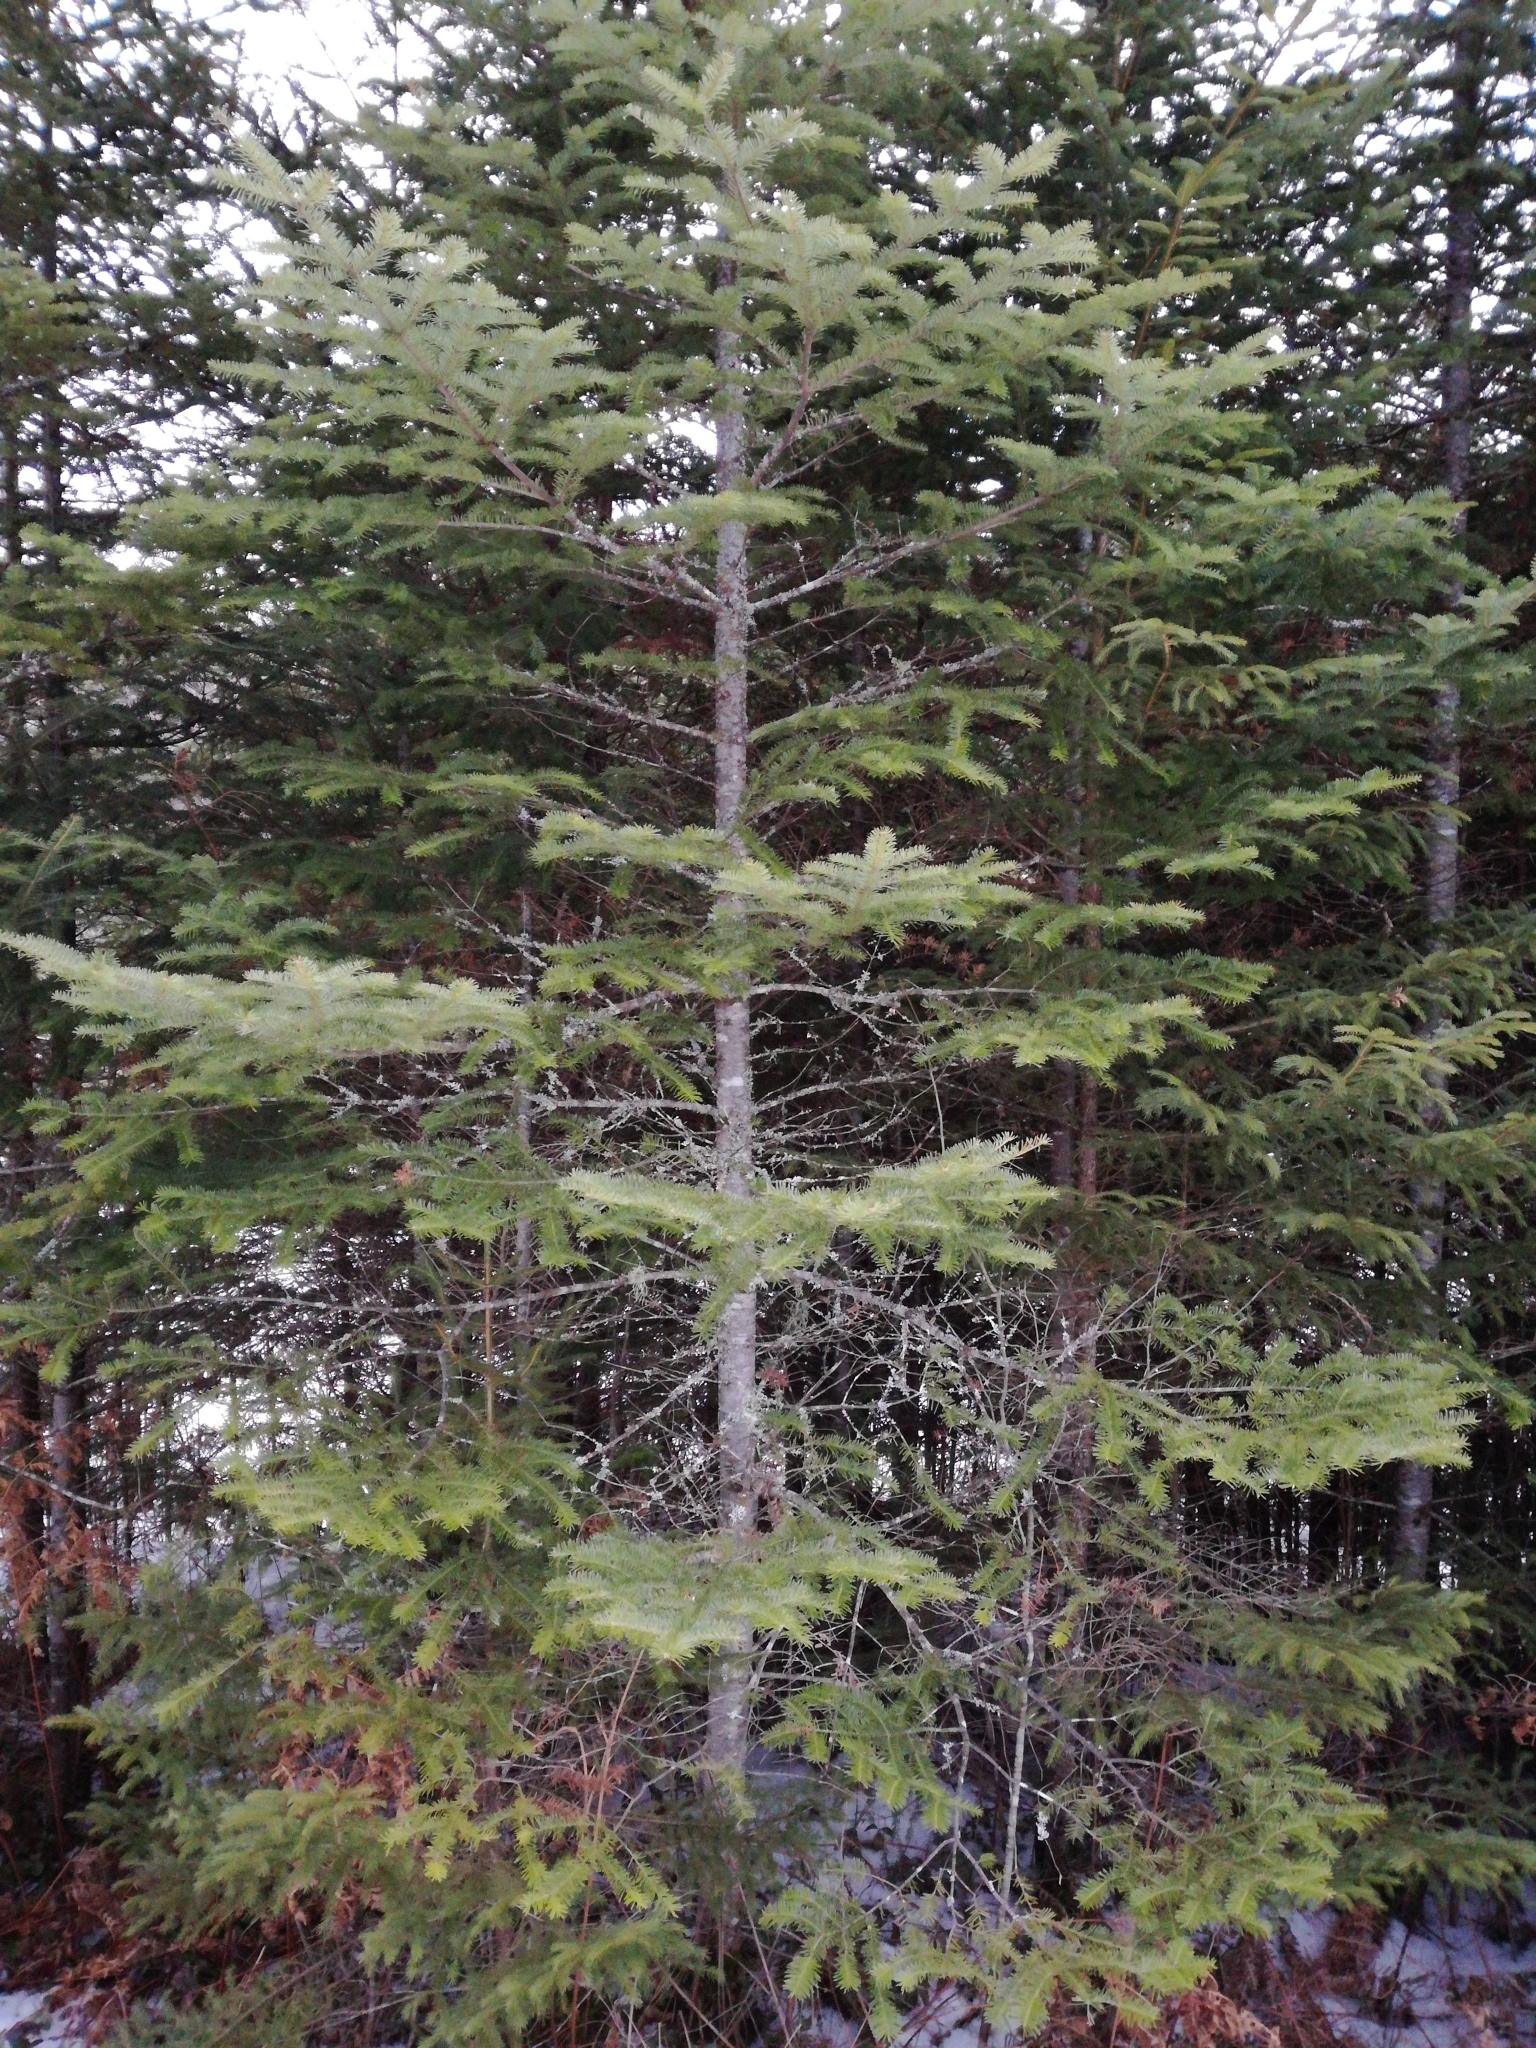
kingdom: Plantae
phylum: Tracheophyta
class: Pinopsida
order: Pinales
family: Pinaceae
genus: Abies
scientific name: Abies balsamea
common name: Balsam fir
